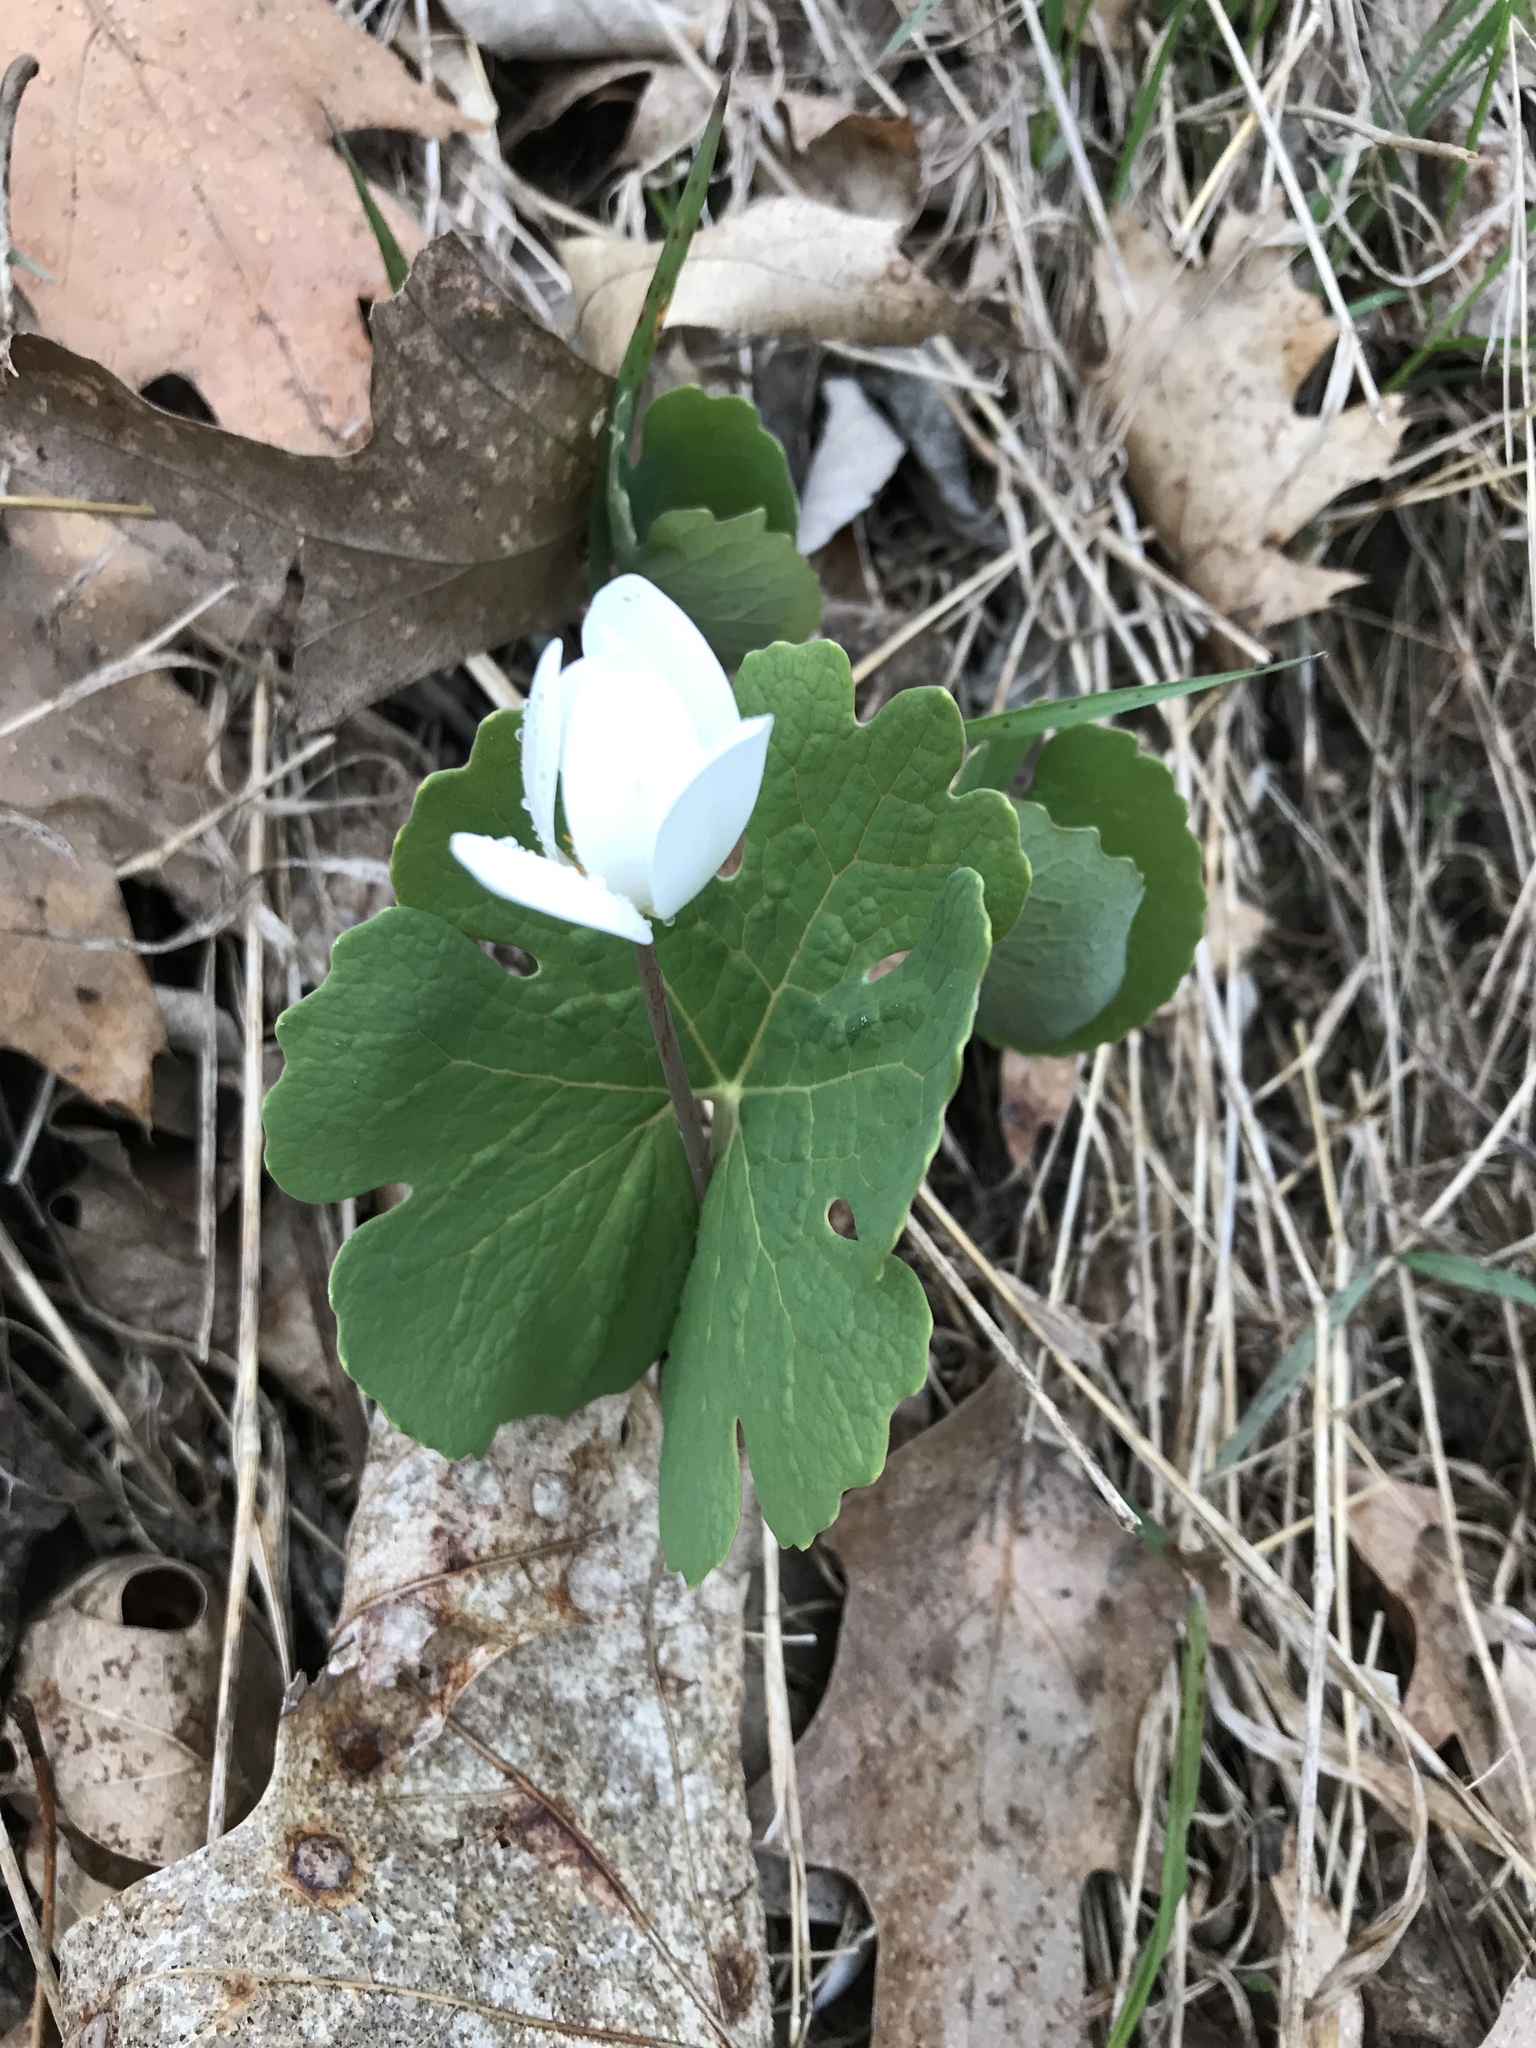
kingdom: Plantae
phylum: Tracheophyta
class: Magnoliopsida
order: Ranunculales
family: Papaveraceae
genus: Sanguinaria
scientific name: Sanguinaria canadensis
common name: Bloodroot
